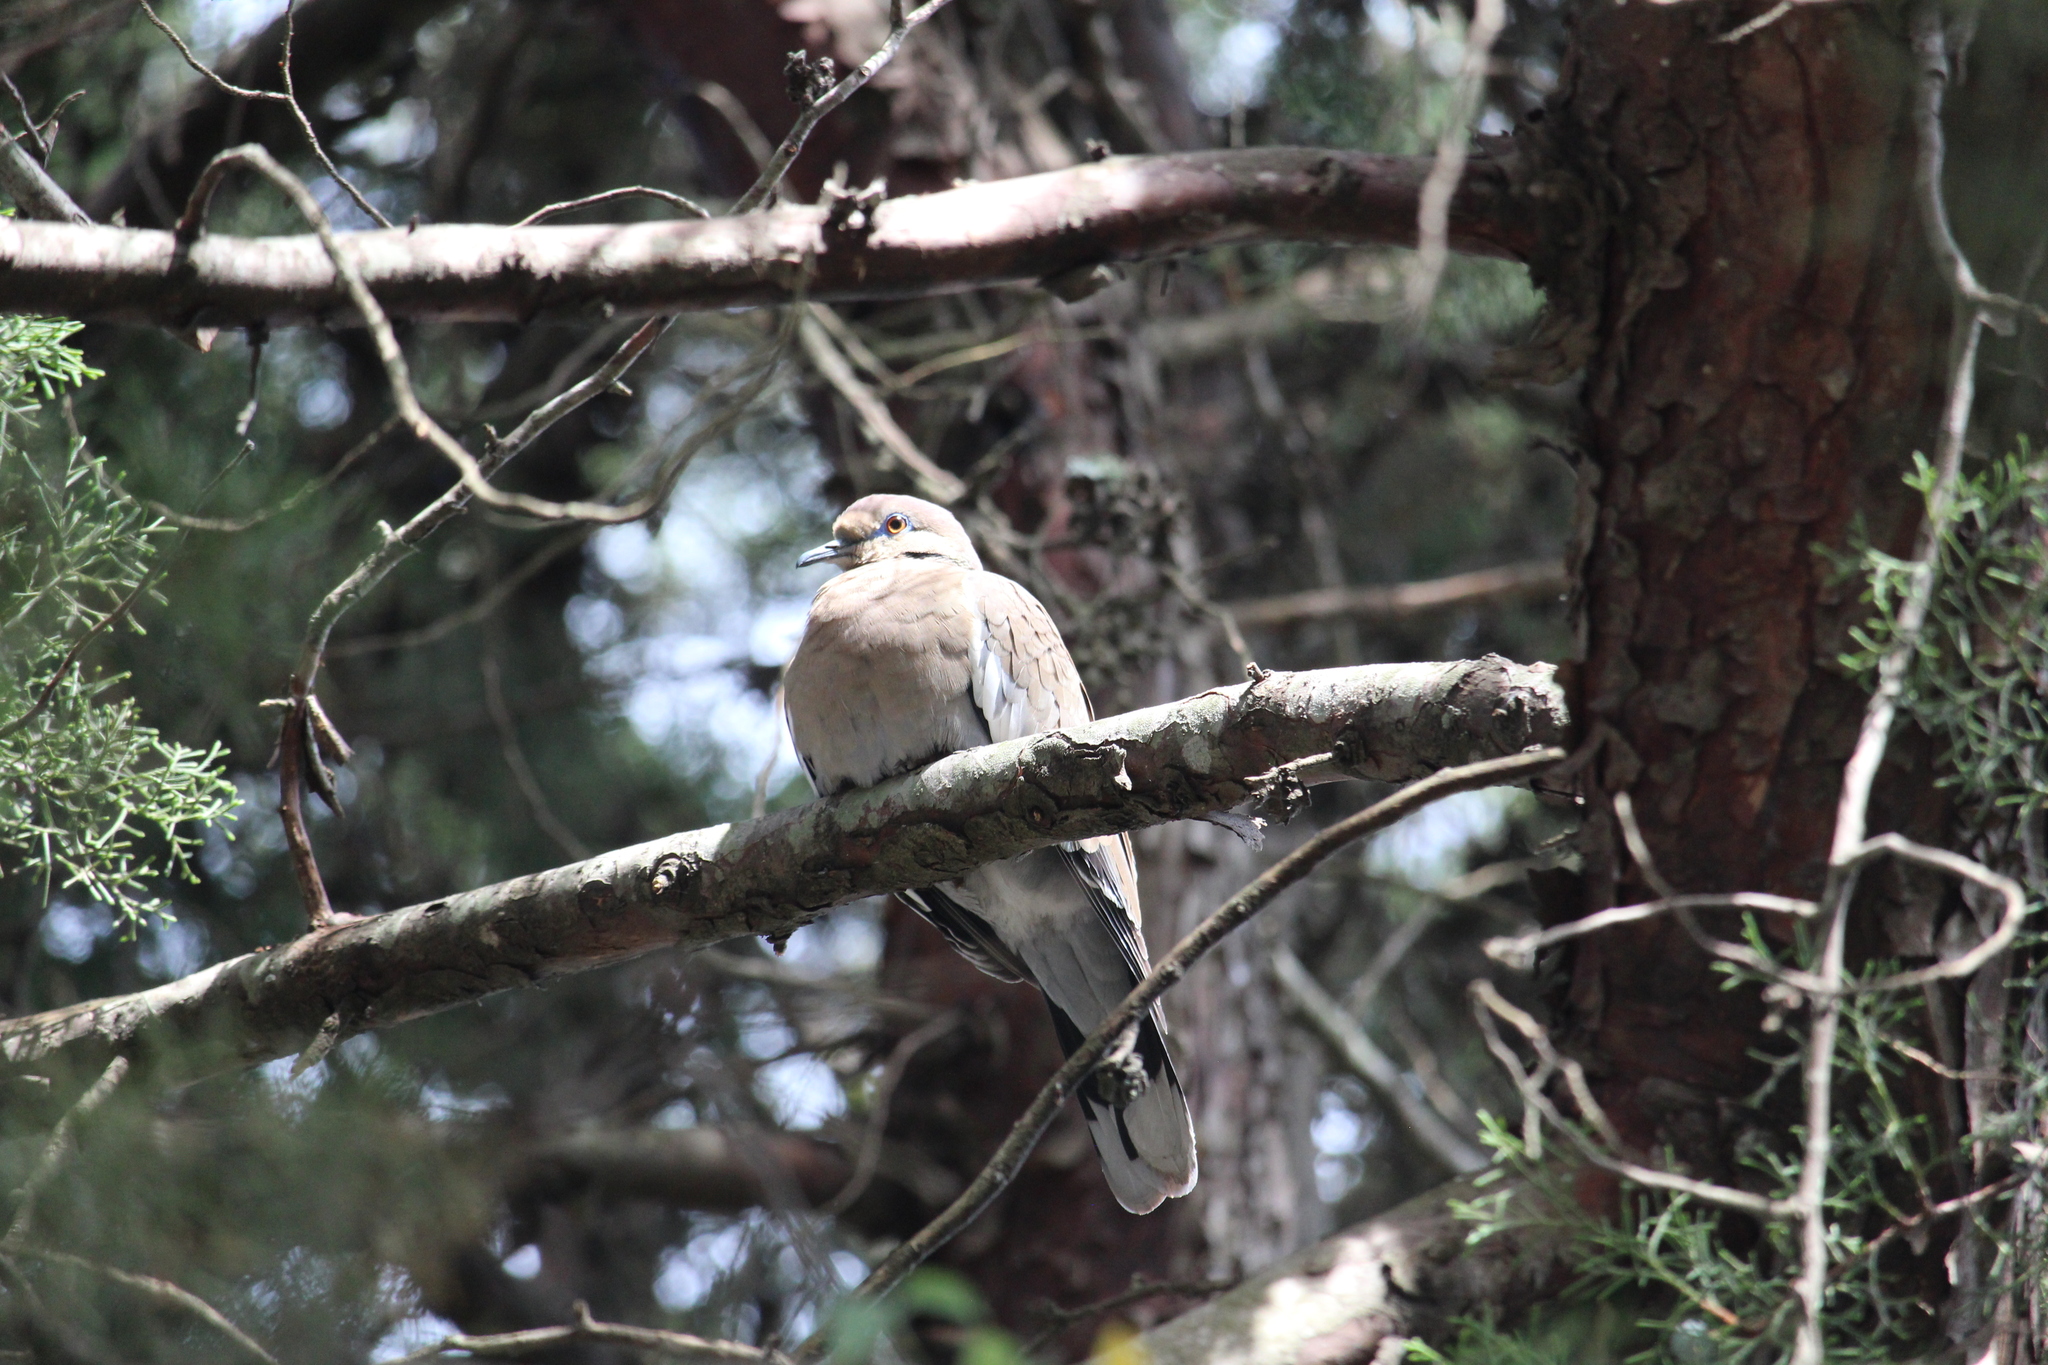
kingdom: Animalia
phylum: Chordata
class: Aves
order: Columbiformes
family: Columbidae
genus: Zenaida
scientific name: Zenaida asiatica
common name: White-winged dove
